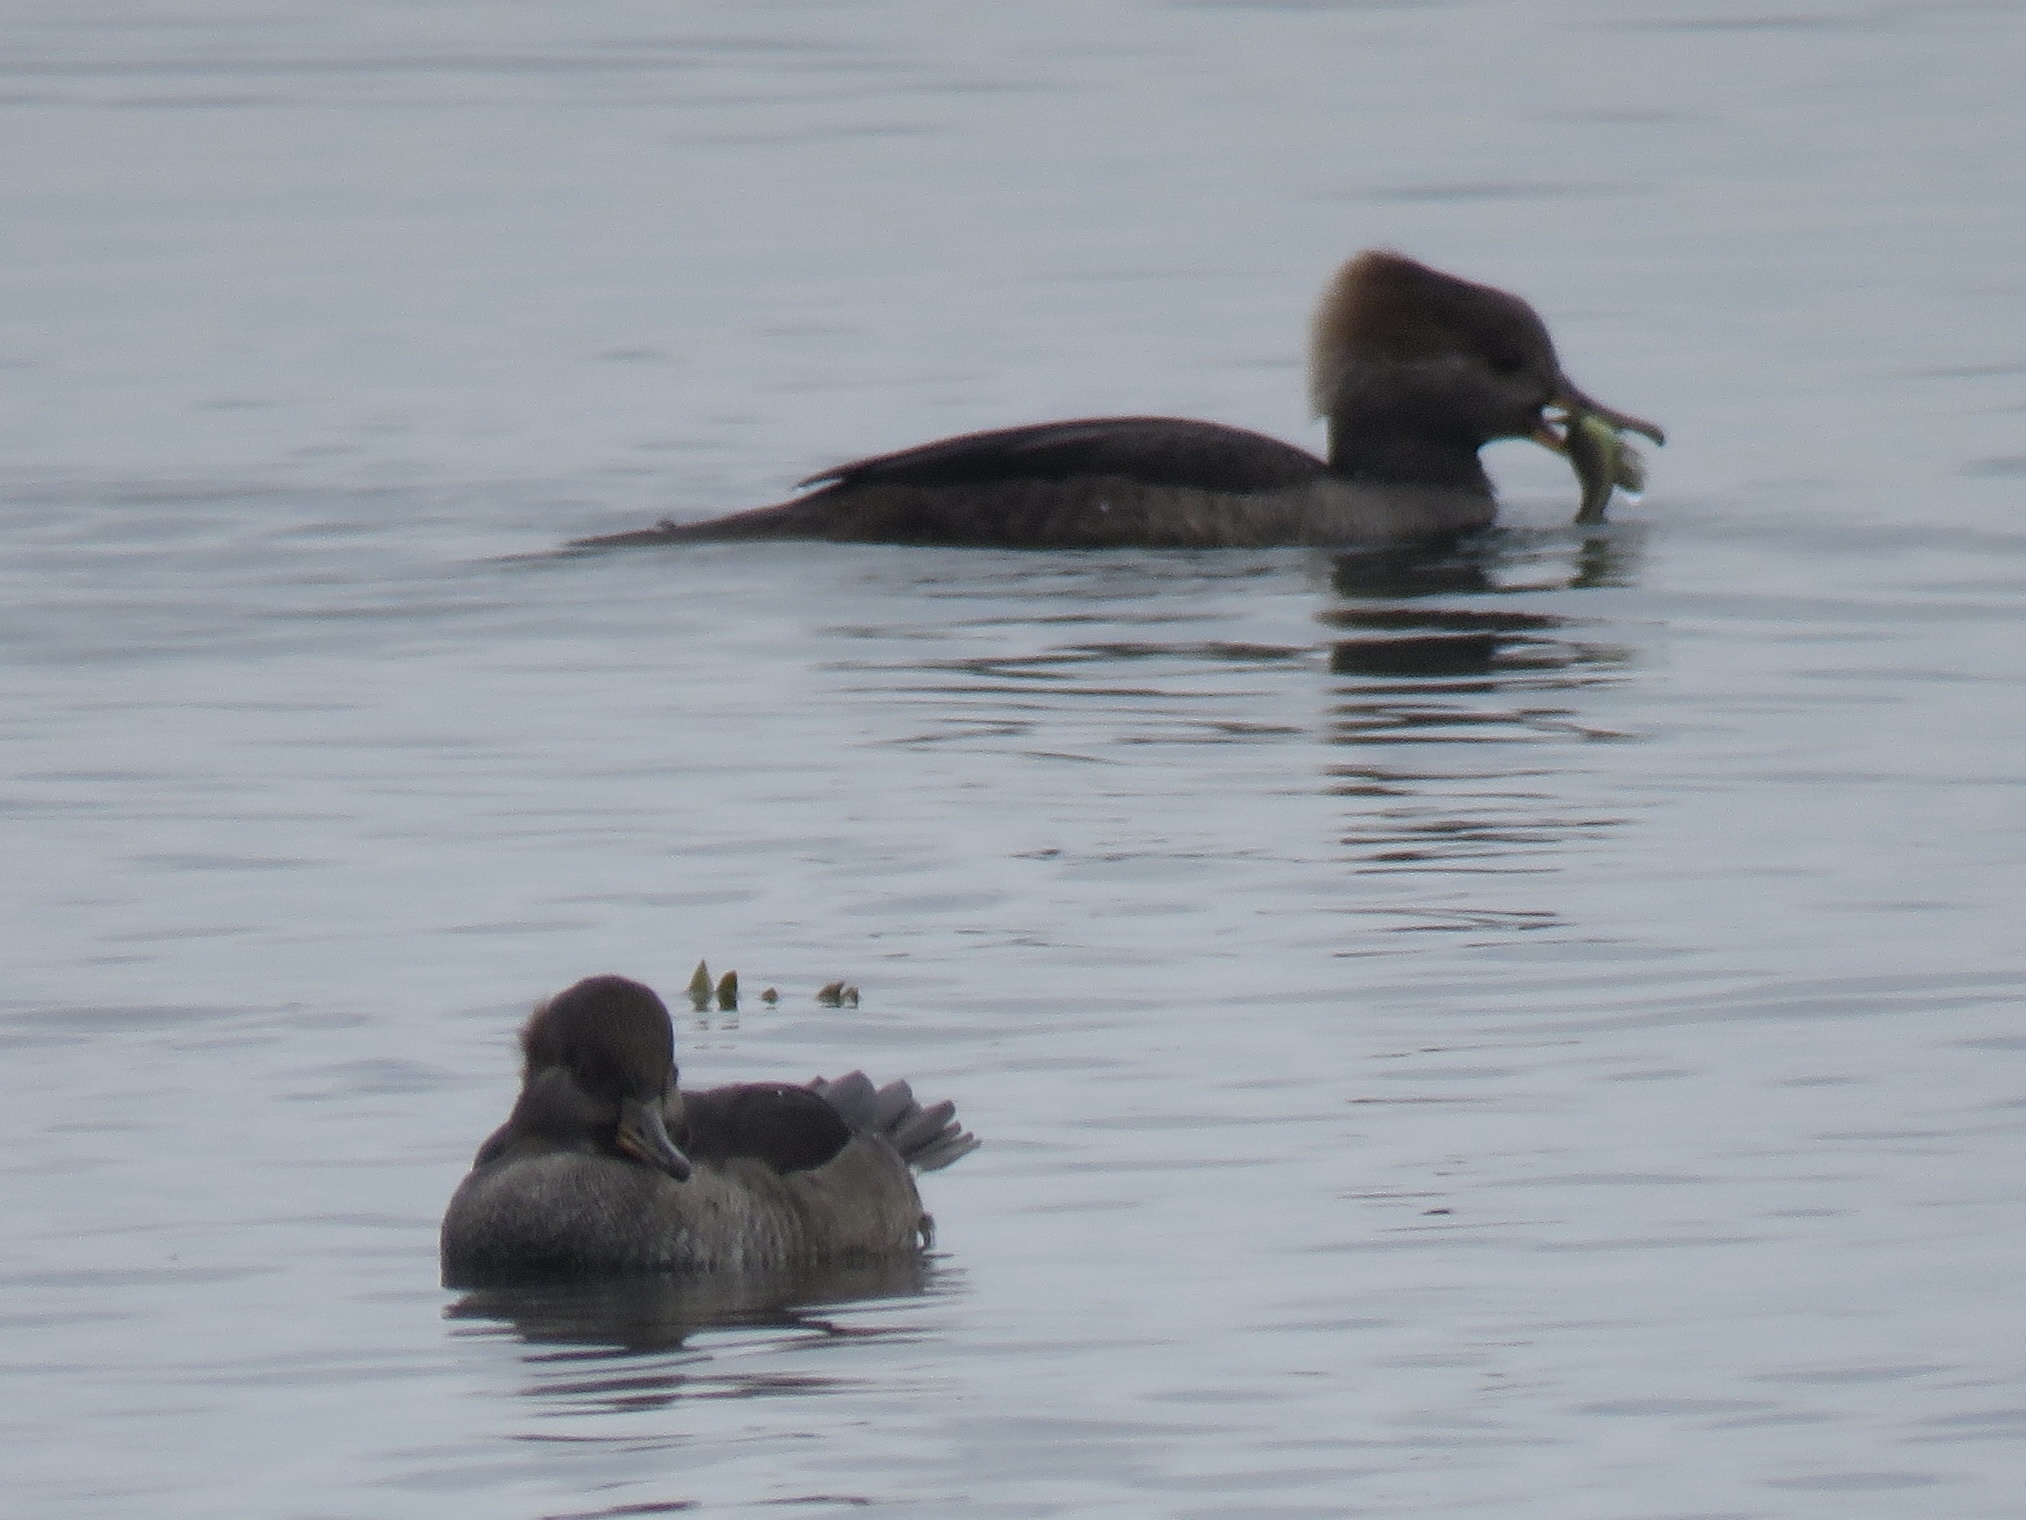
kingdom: Animalia
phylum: Chordata
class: Aves
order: Anseriformes
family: Anatidae
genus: Lophodytes
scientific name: Lophodytes cucullatus
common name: Hooded merganser
